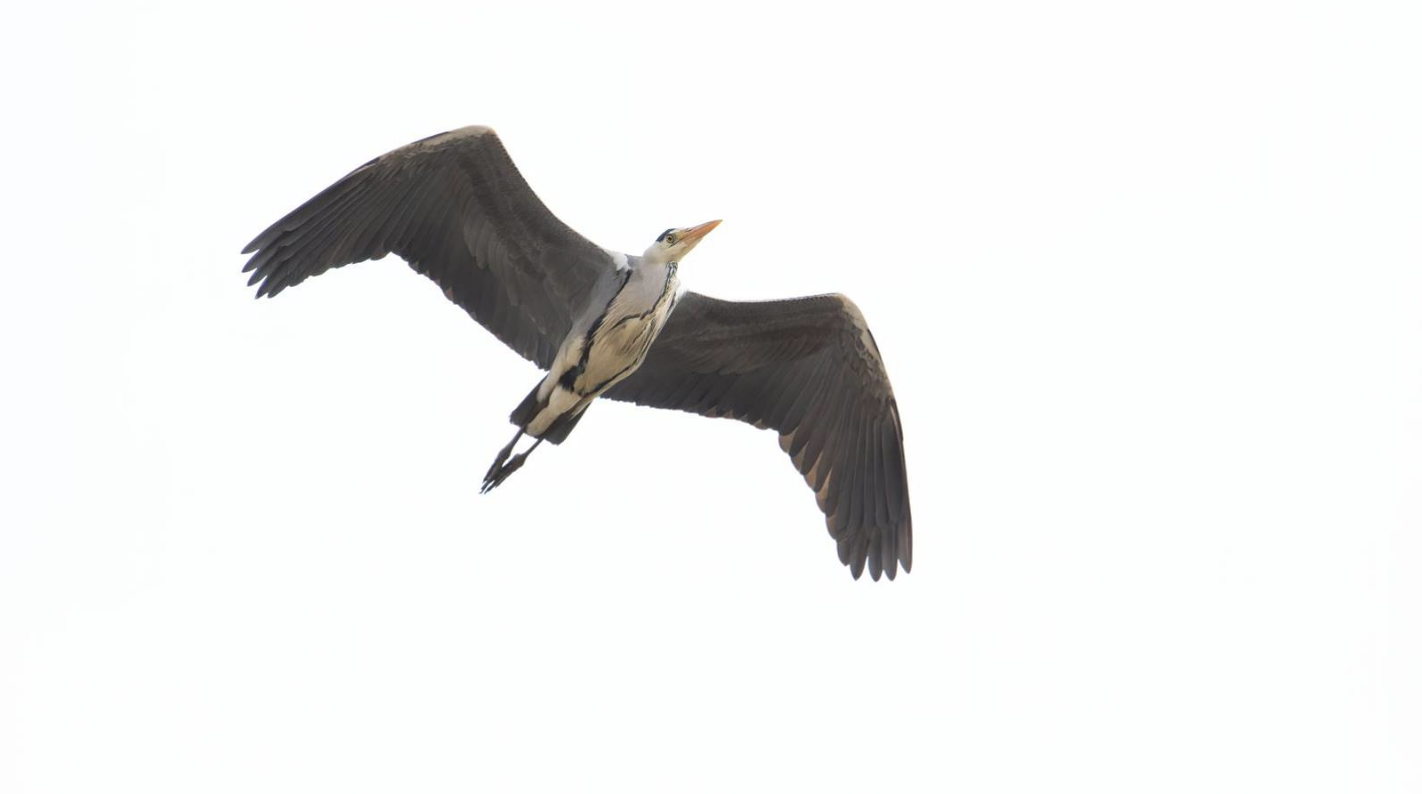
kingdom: Animalia
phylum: Chordata
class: Aves
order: Pelecaniformes
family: Ardeidae
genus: Ardea
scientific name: Ardea cinerea
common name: Grey heron
